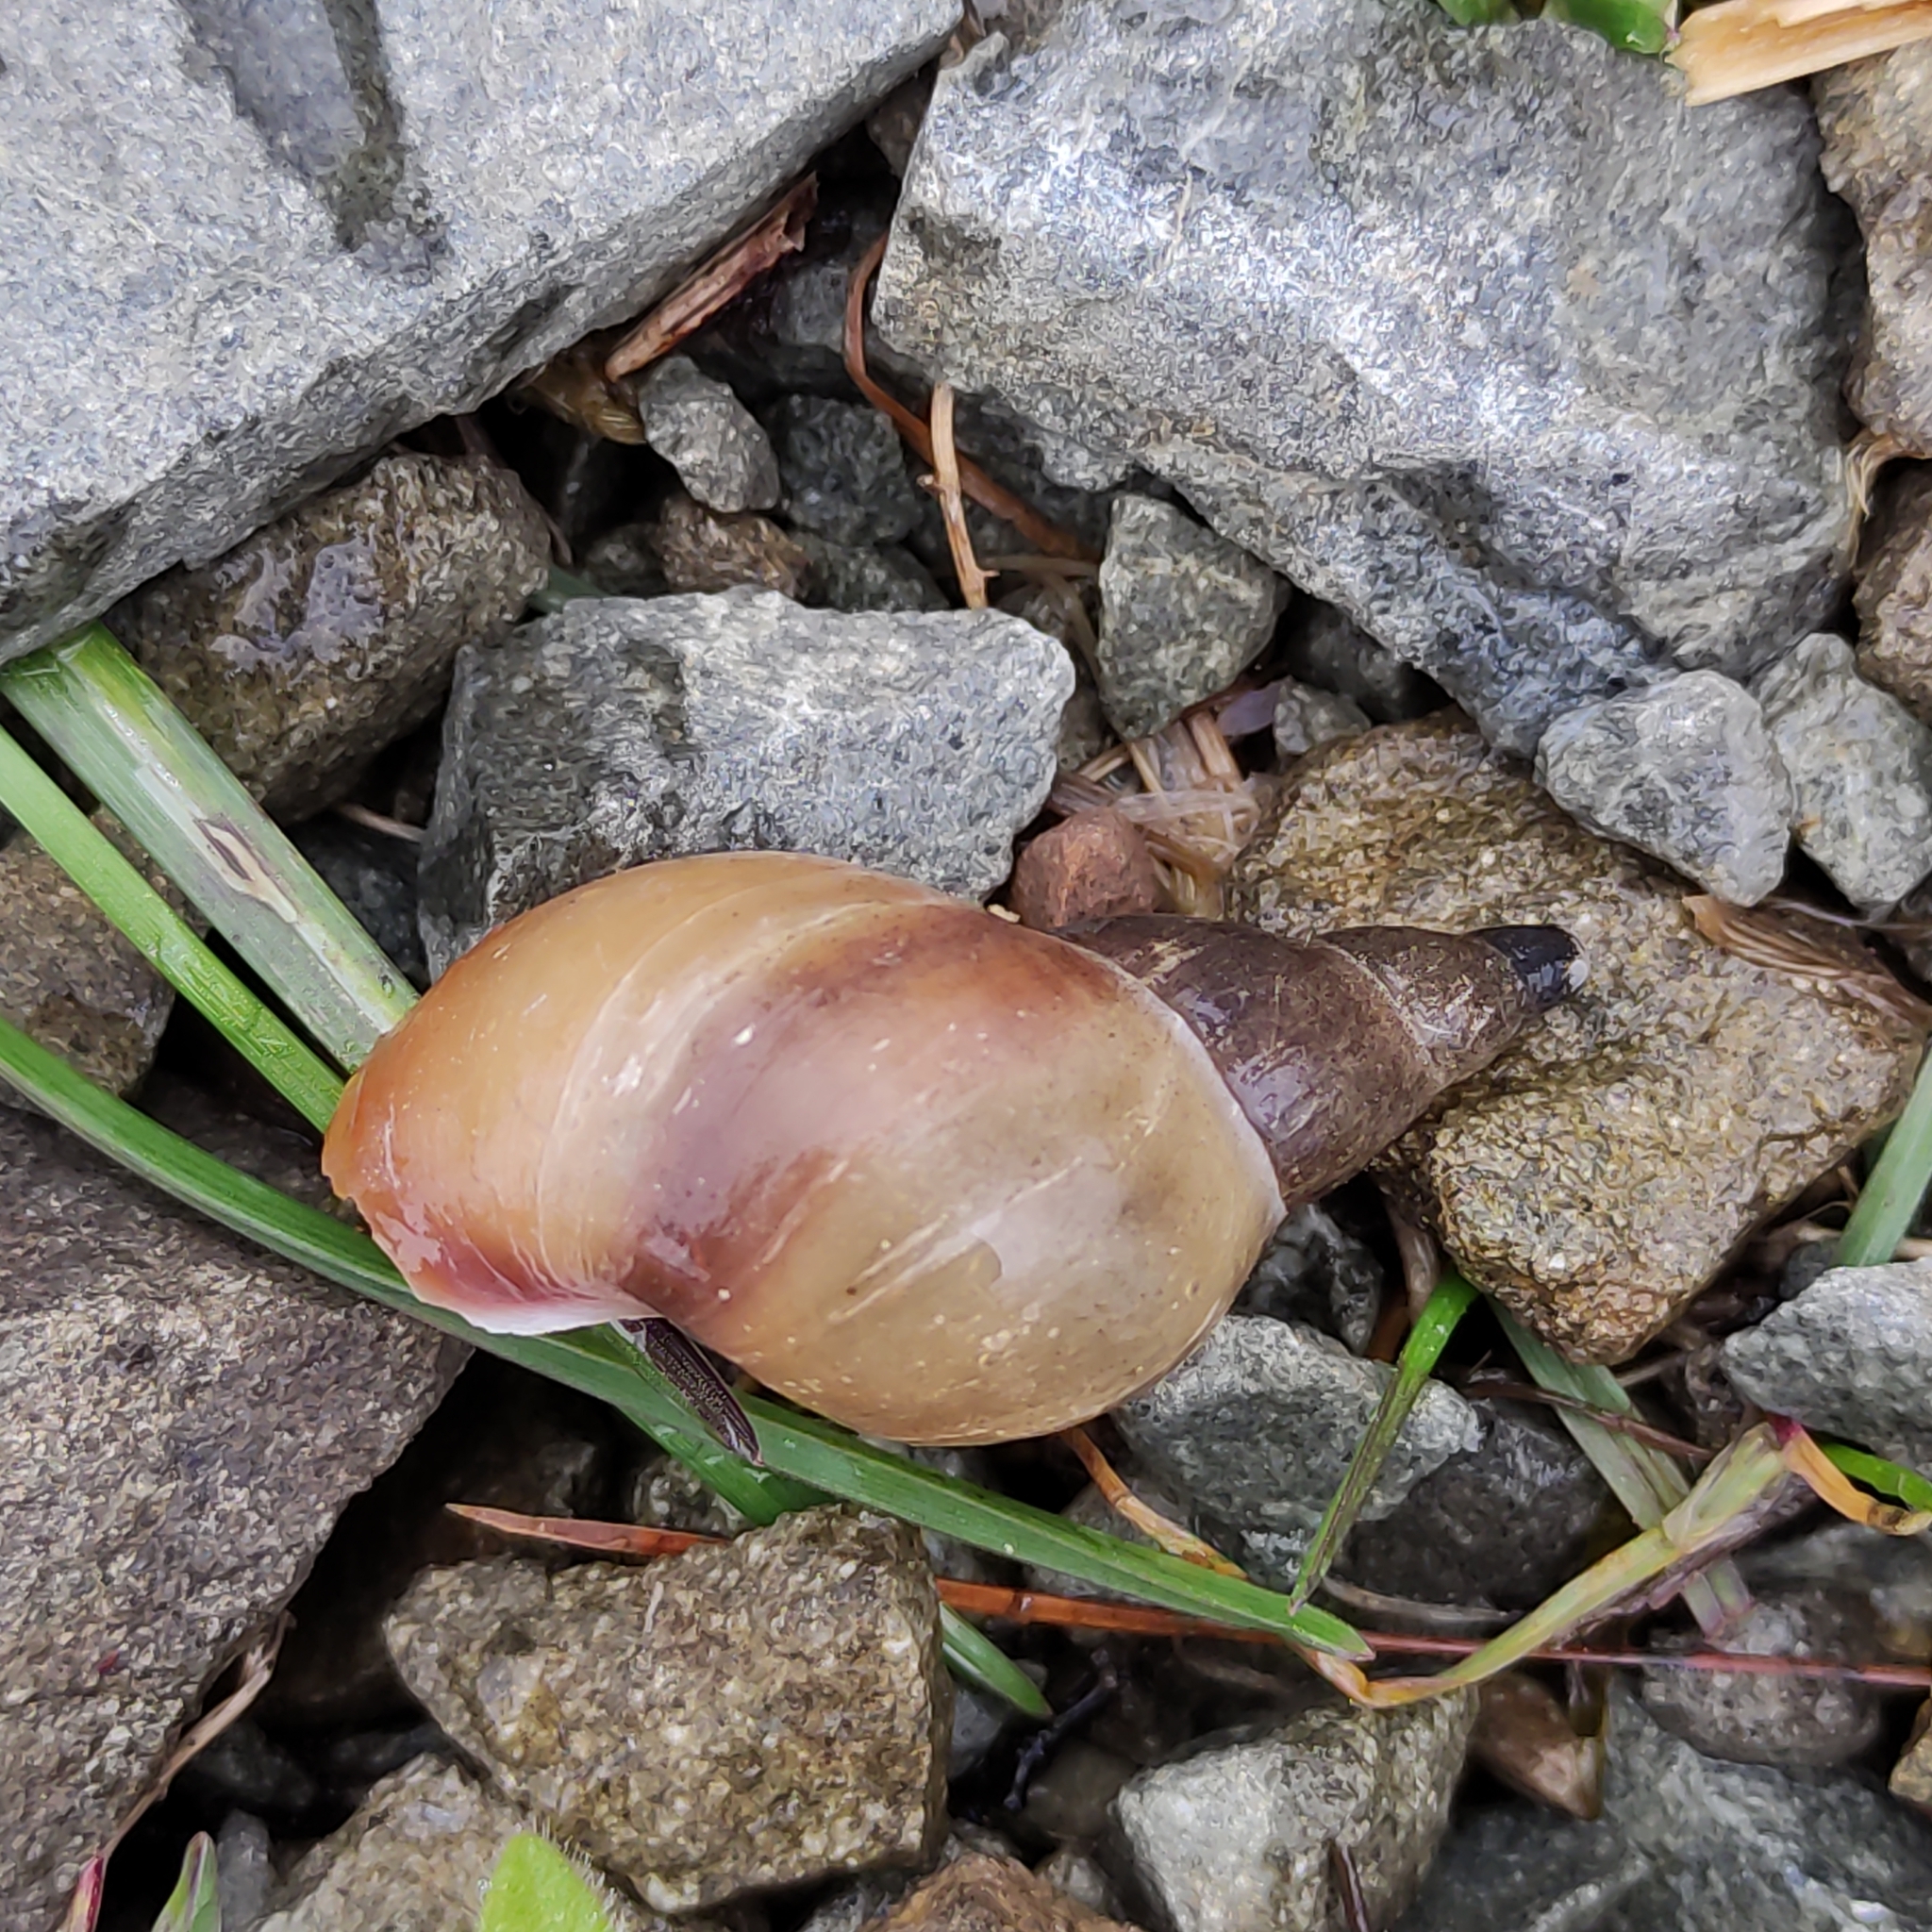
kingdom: Animalia
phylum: Mollusca
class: Gastropoda
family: Lymnaeidae
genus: Lymnaea
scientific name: Lymnaea stagnalis
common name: Great pond snail
